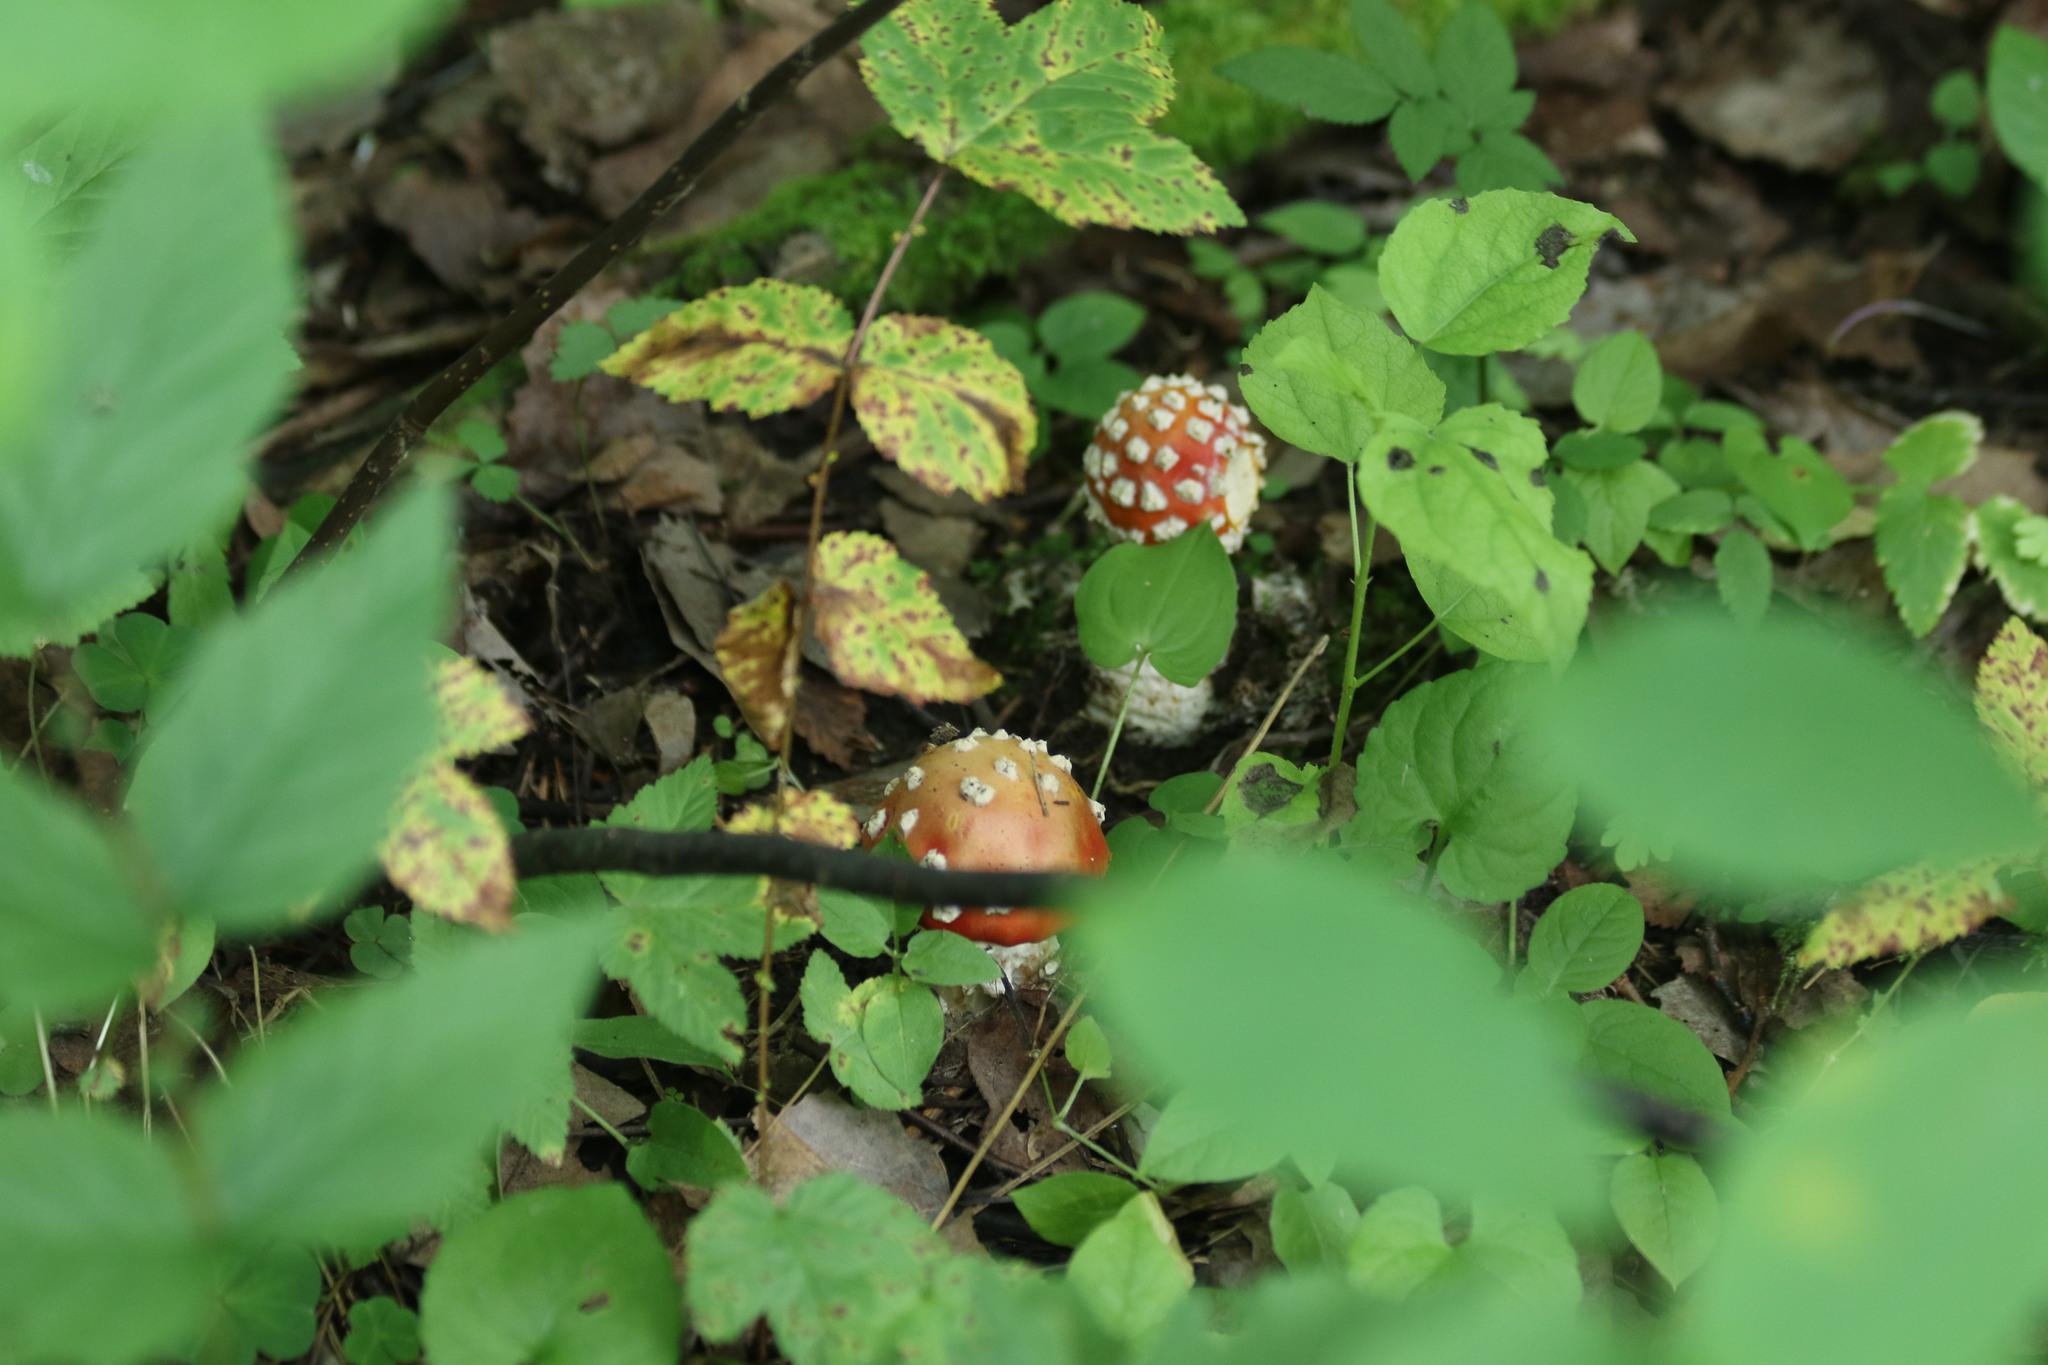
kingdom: Fungi
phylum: Basidiomycota
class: Agaricomycetes
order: Agaricales
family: Amanitaceae
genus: Amanita
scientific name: Amanita muscaria
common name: Fly agaric
